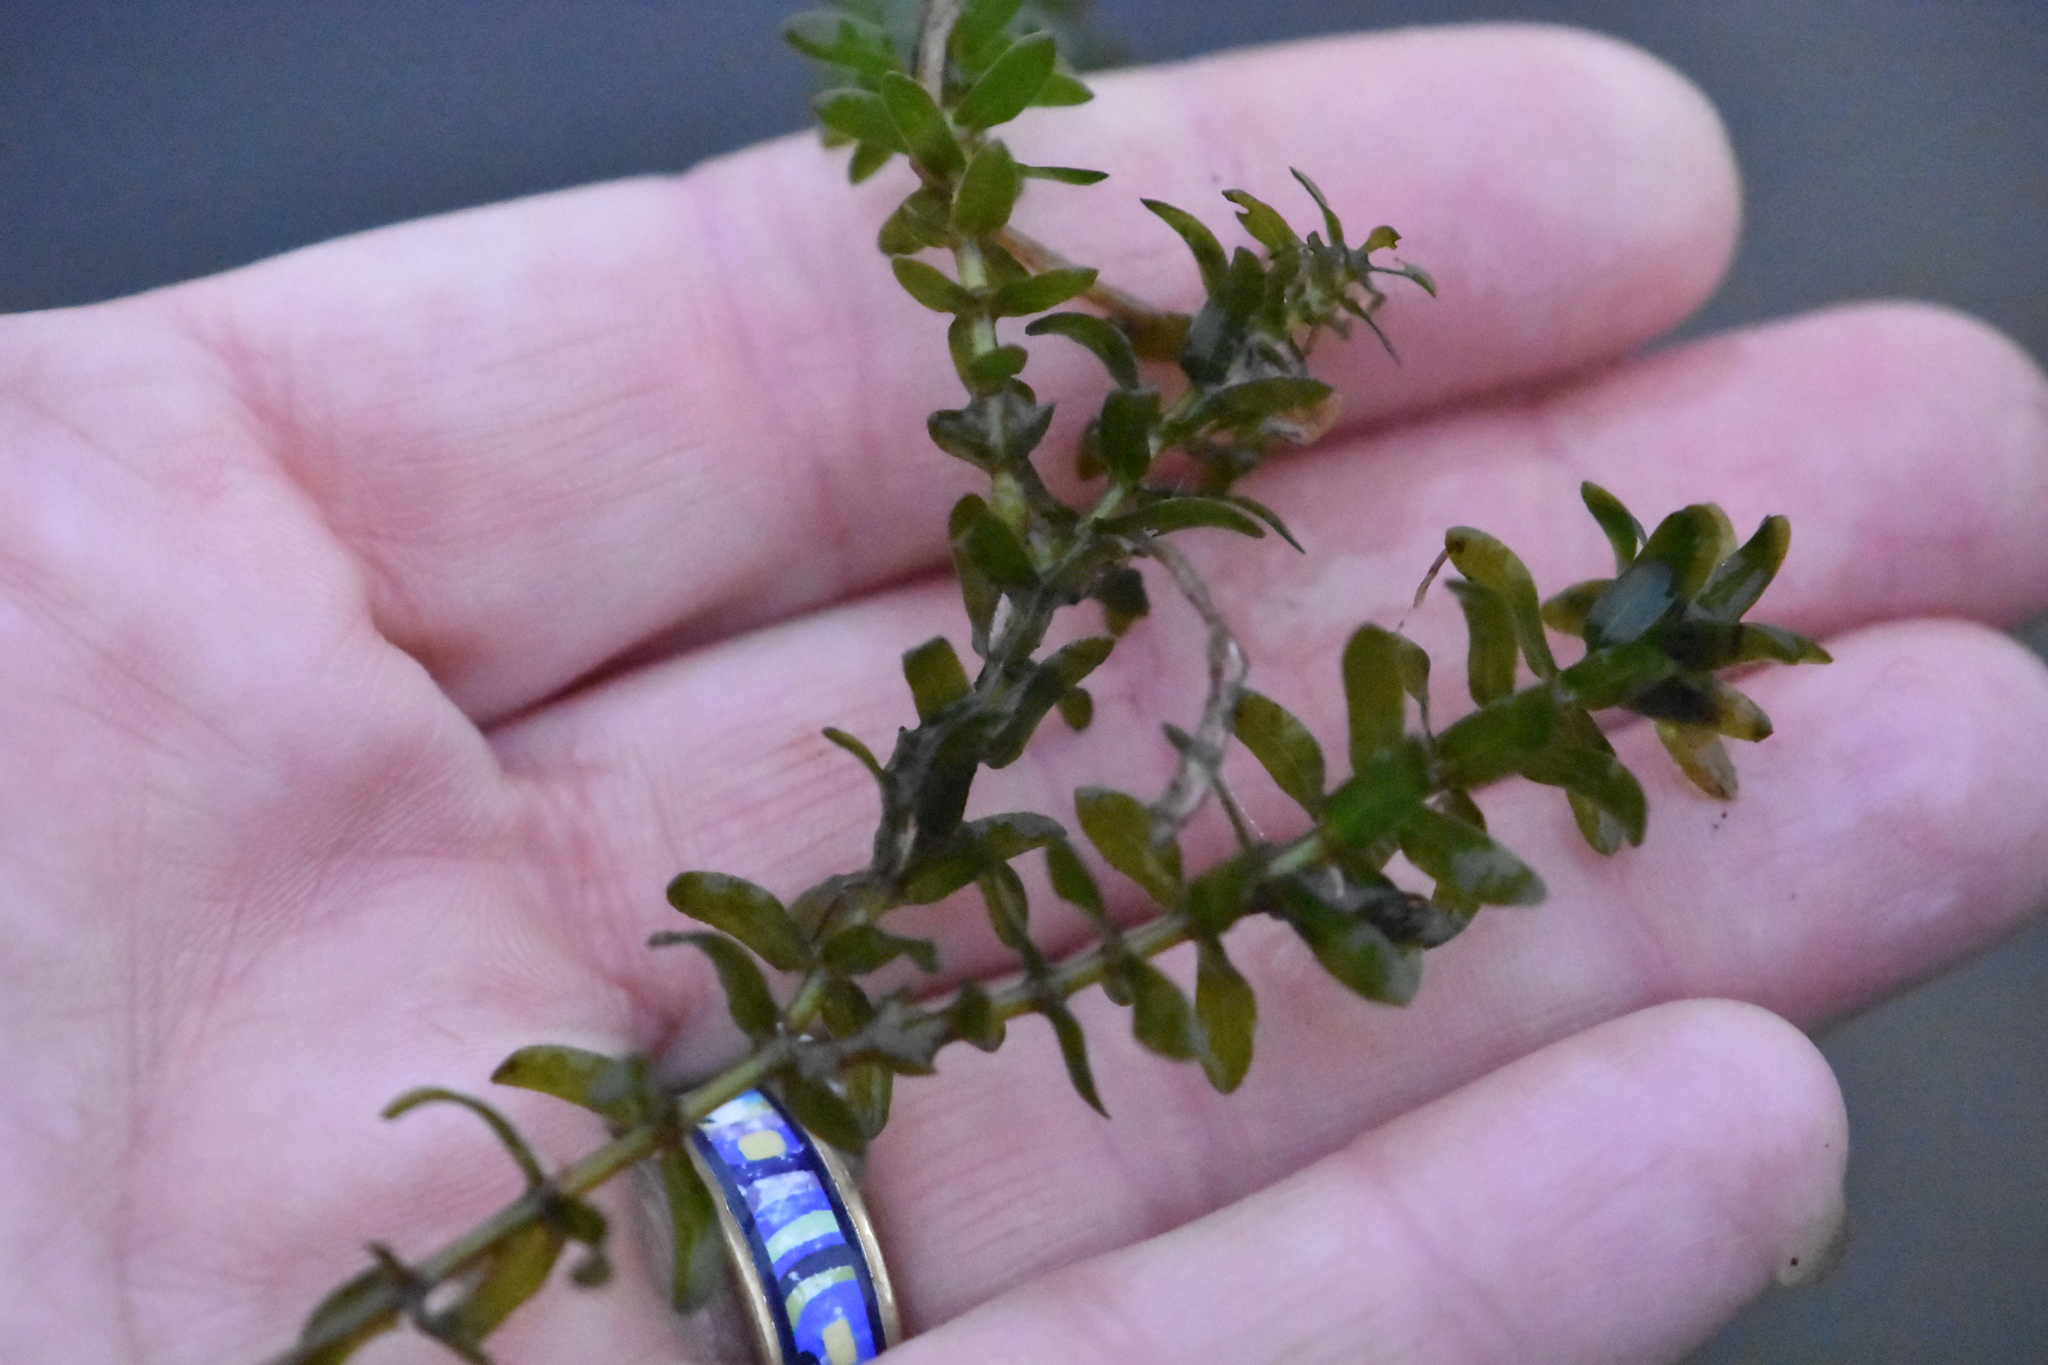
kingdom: Plantae
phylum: Tracheophyta
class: Liliopsida
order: Alismatales
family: Hydrocharitaceae
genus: Elodea
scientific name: Elodea canadensis
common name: Canadian waterweed
